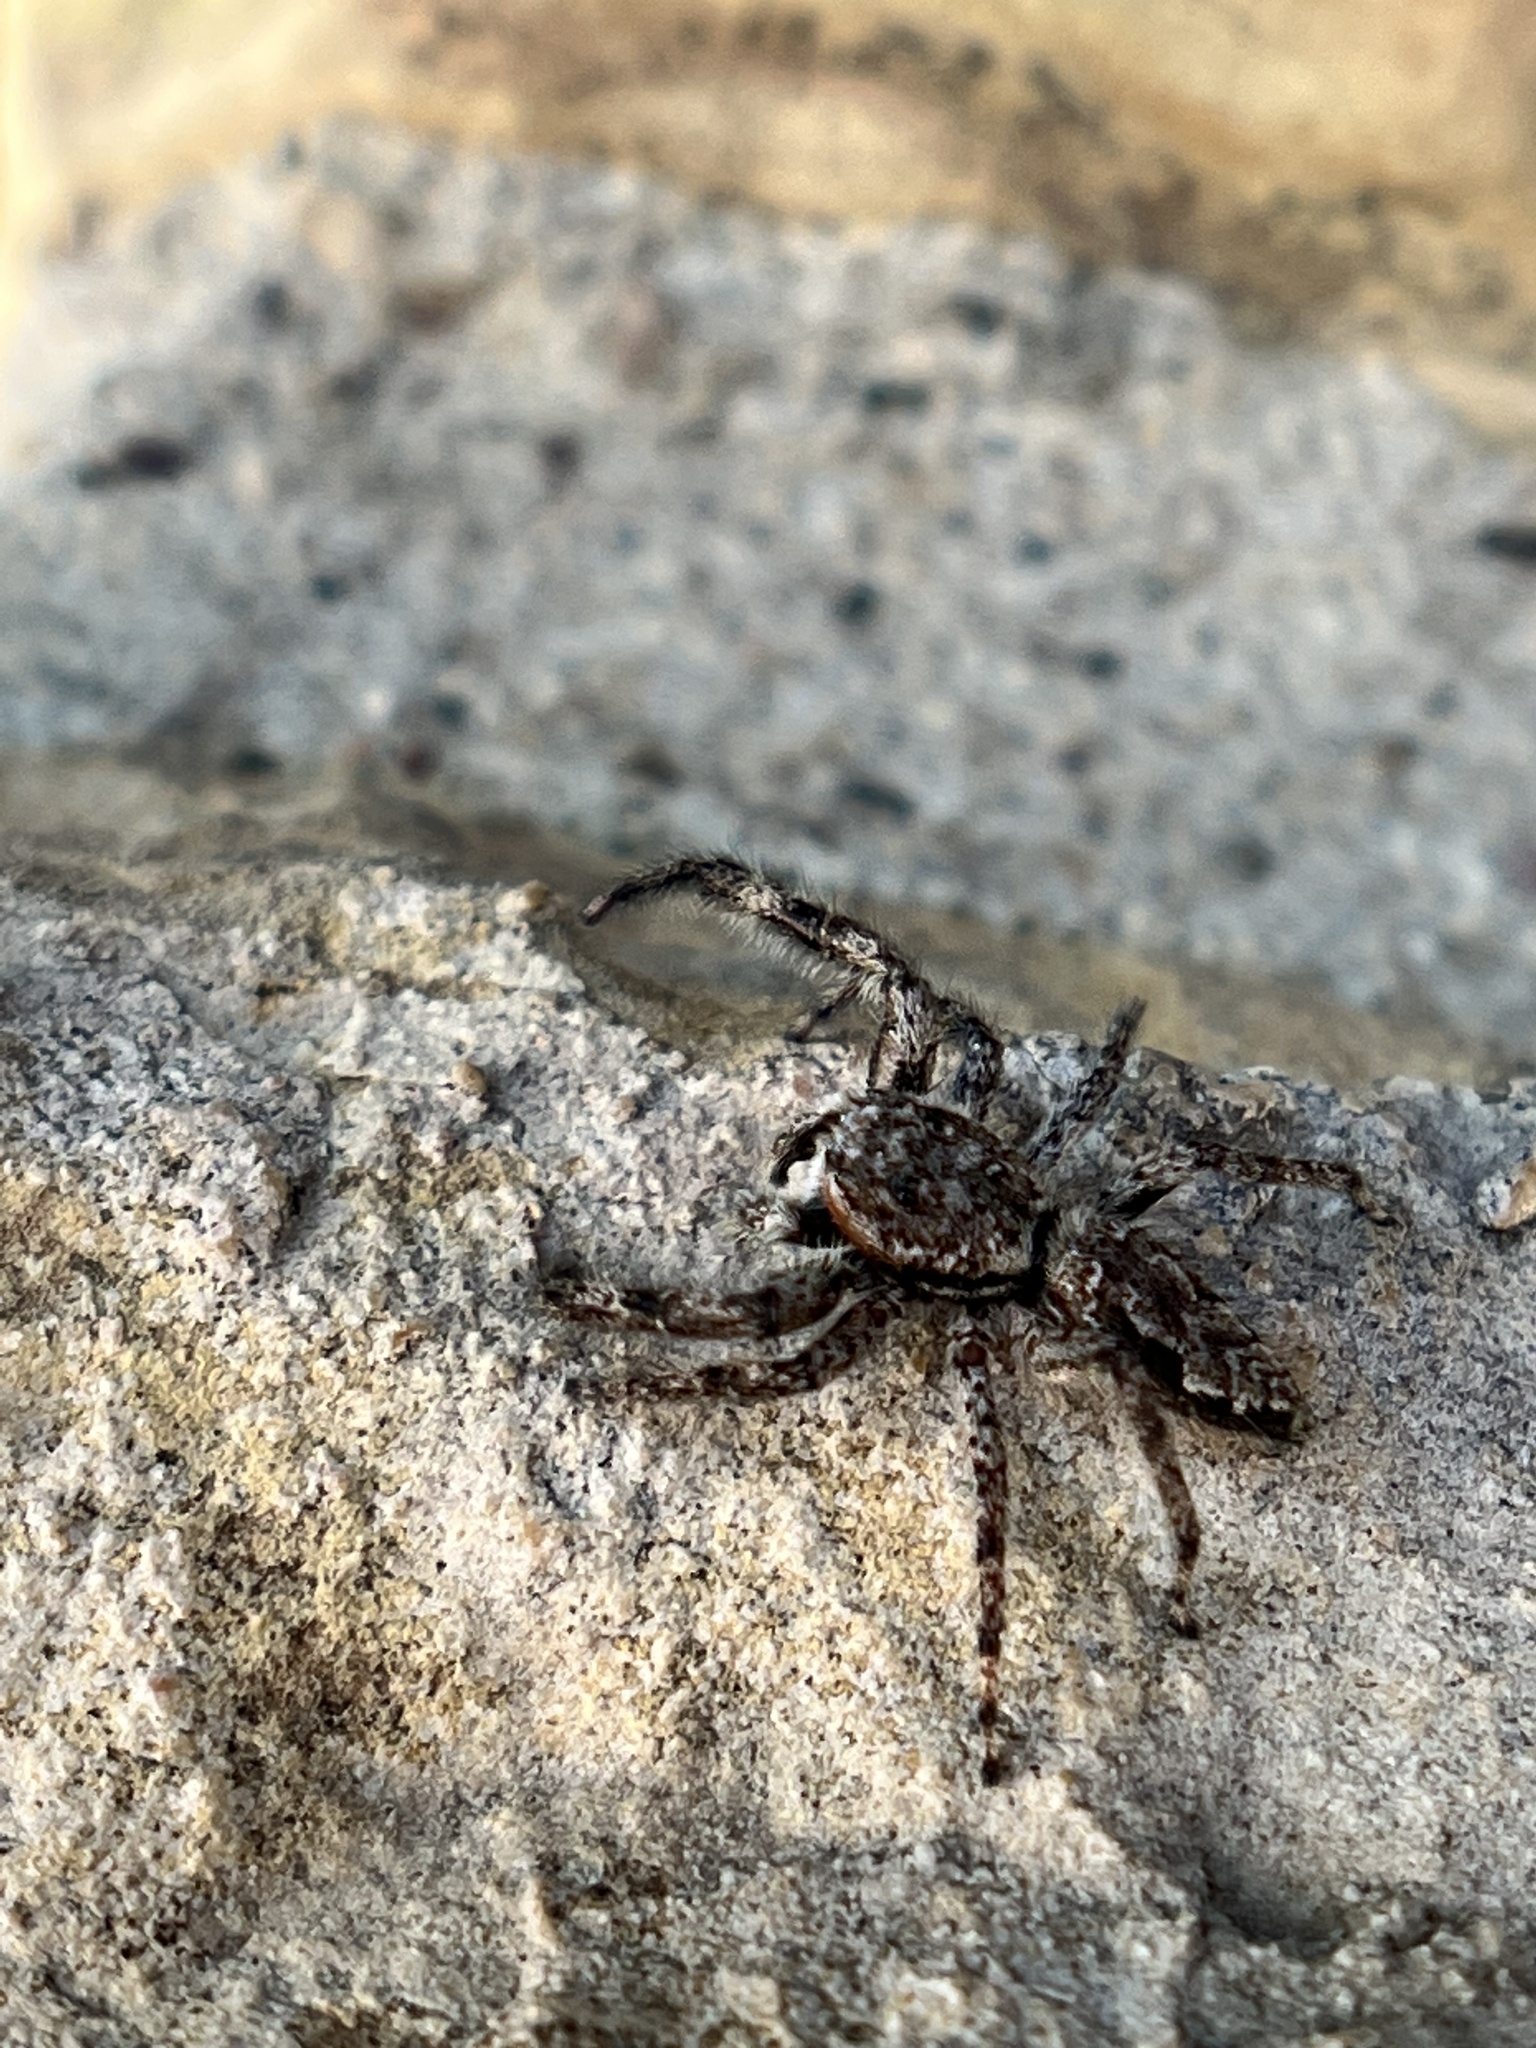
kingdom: Animalia
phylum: Arthropoda
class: Arachnida
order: Araneae
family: Salticidae
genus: Platycryptus
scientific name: Platycryptus undatus
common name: Tan jumping spider
